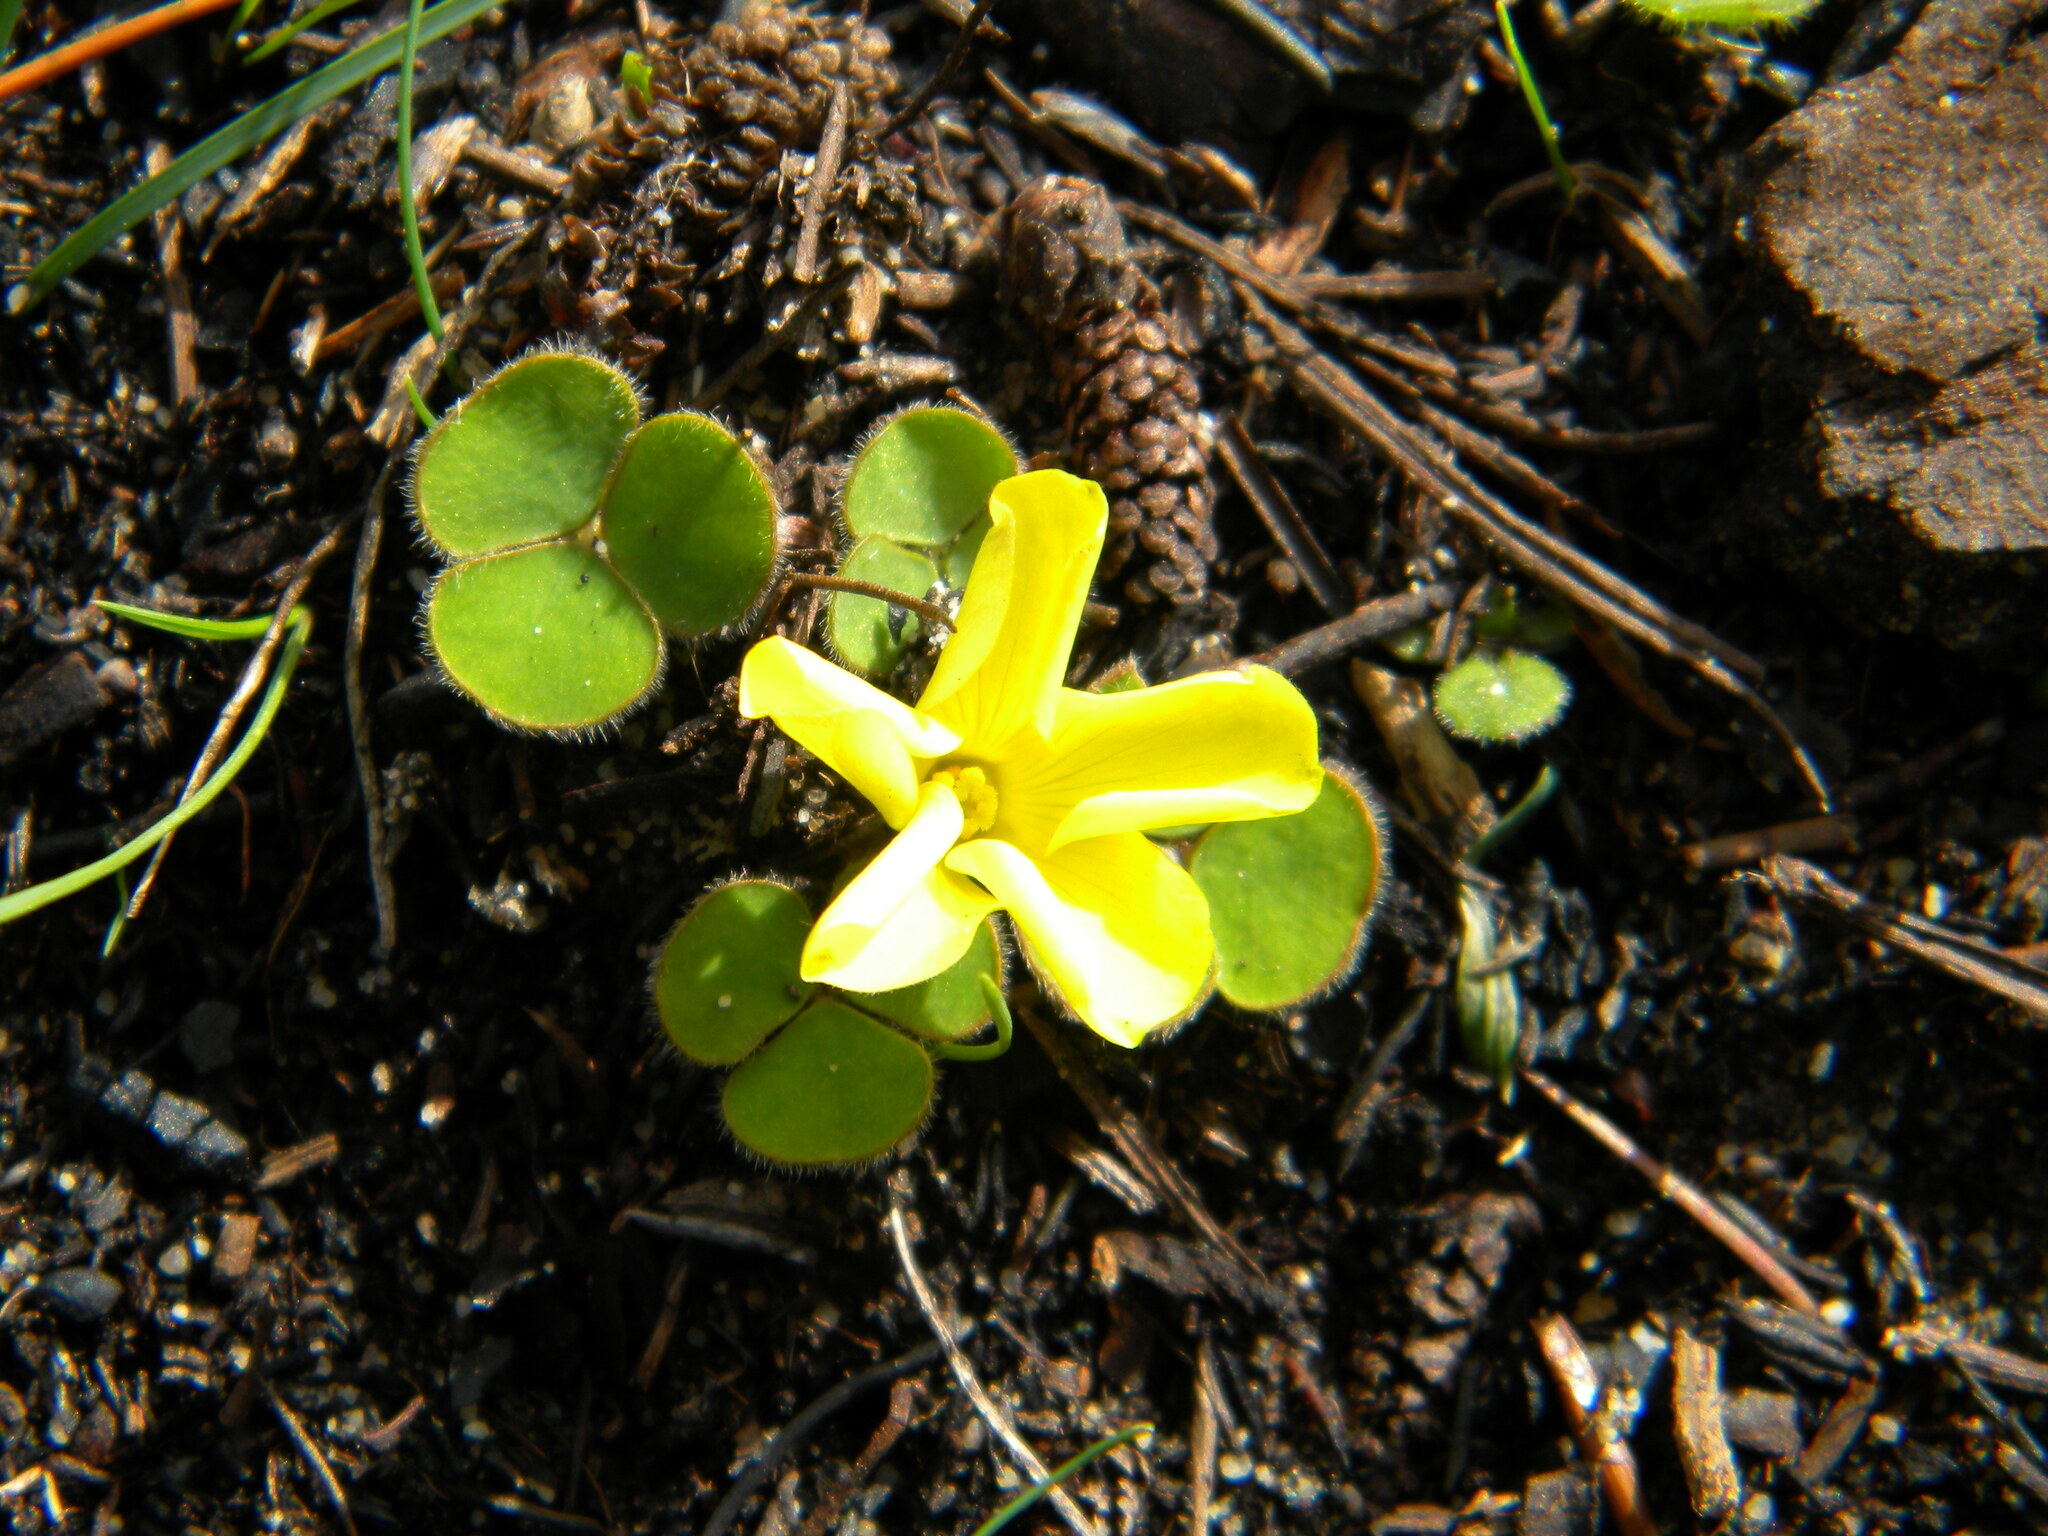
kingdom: Plantae
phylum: Tracheophyta
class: Magnoliopsida
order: Oxalidales
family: Oxalidaceae
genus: Oxalis
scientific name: Oxalis luteola
